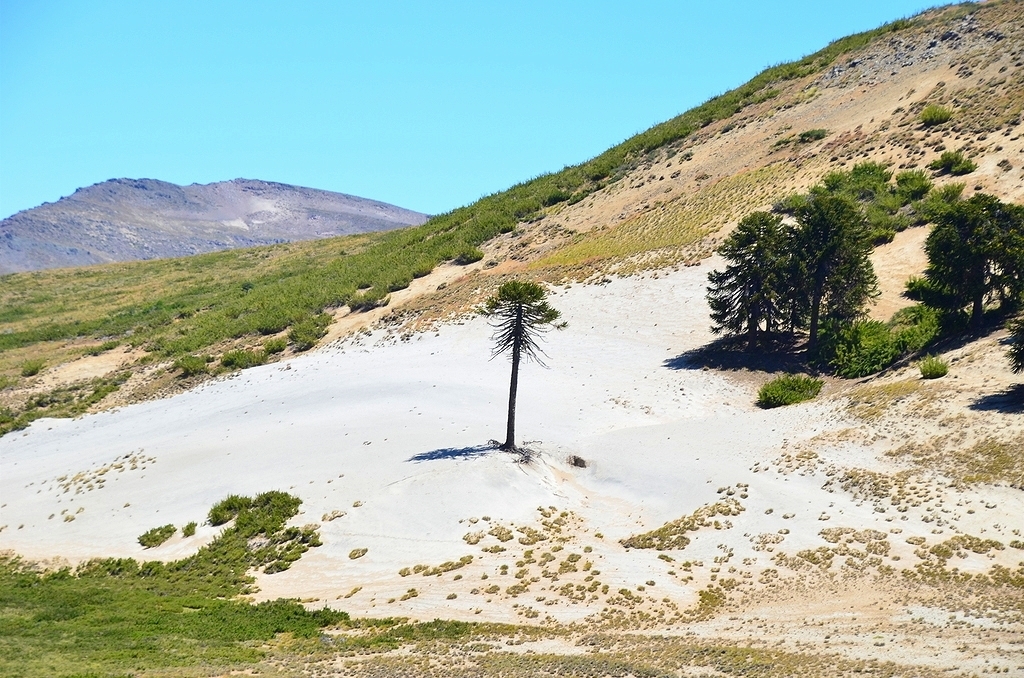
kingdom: Plantae
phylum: Tracheophyta
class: Pinopsida
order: Pinales
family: Araucariaceae
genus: Araucaria
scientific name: Araucaria araucana
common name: Monkey-puzzle
